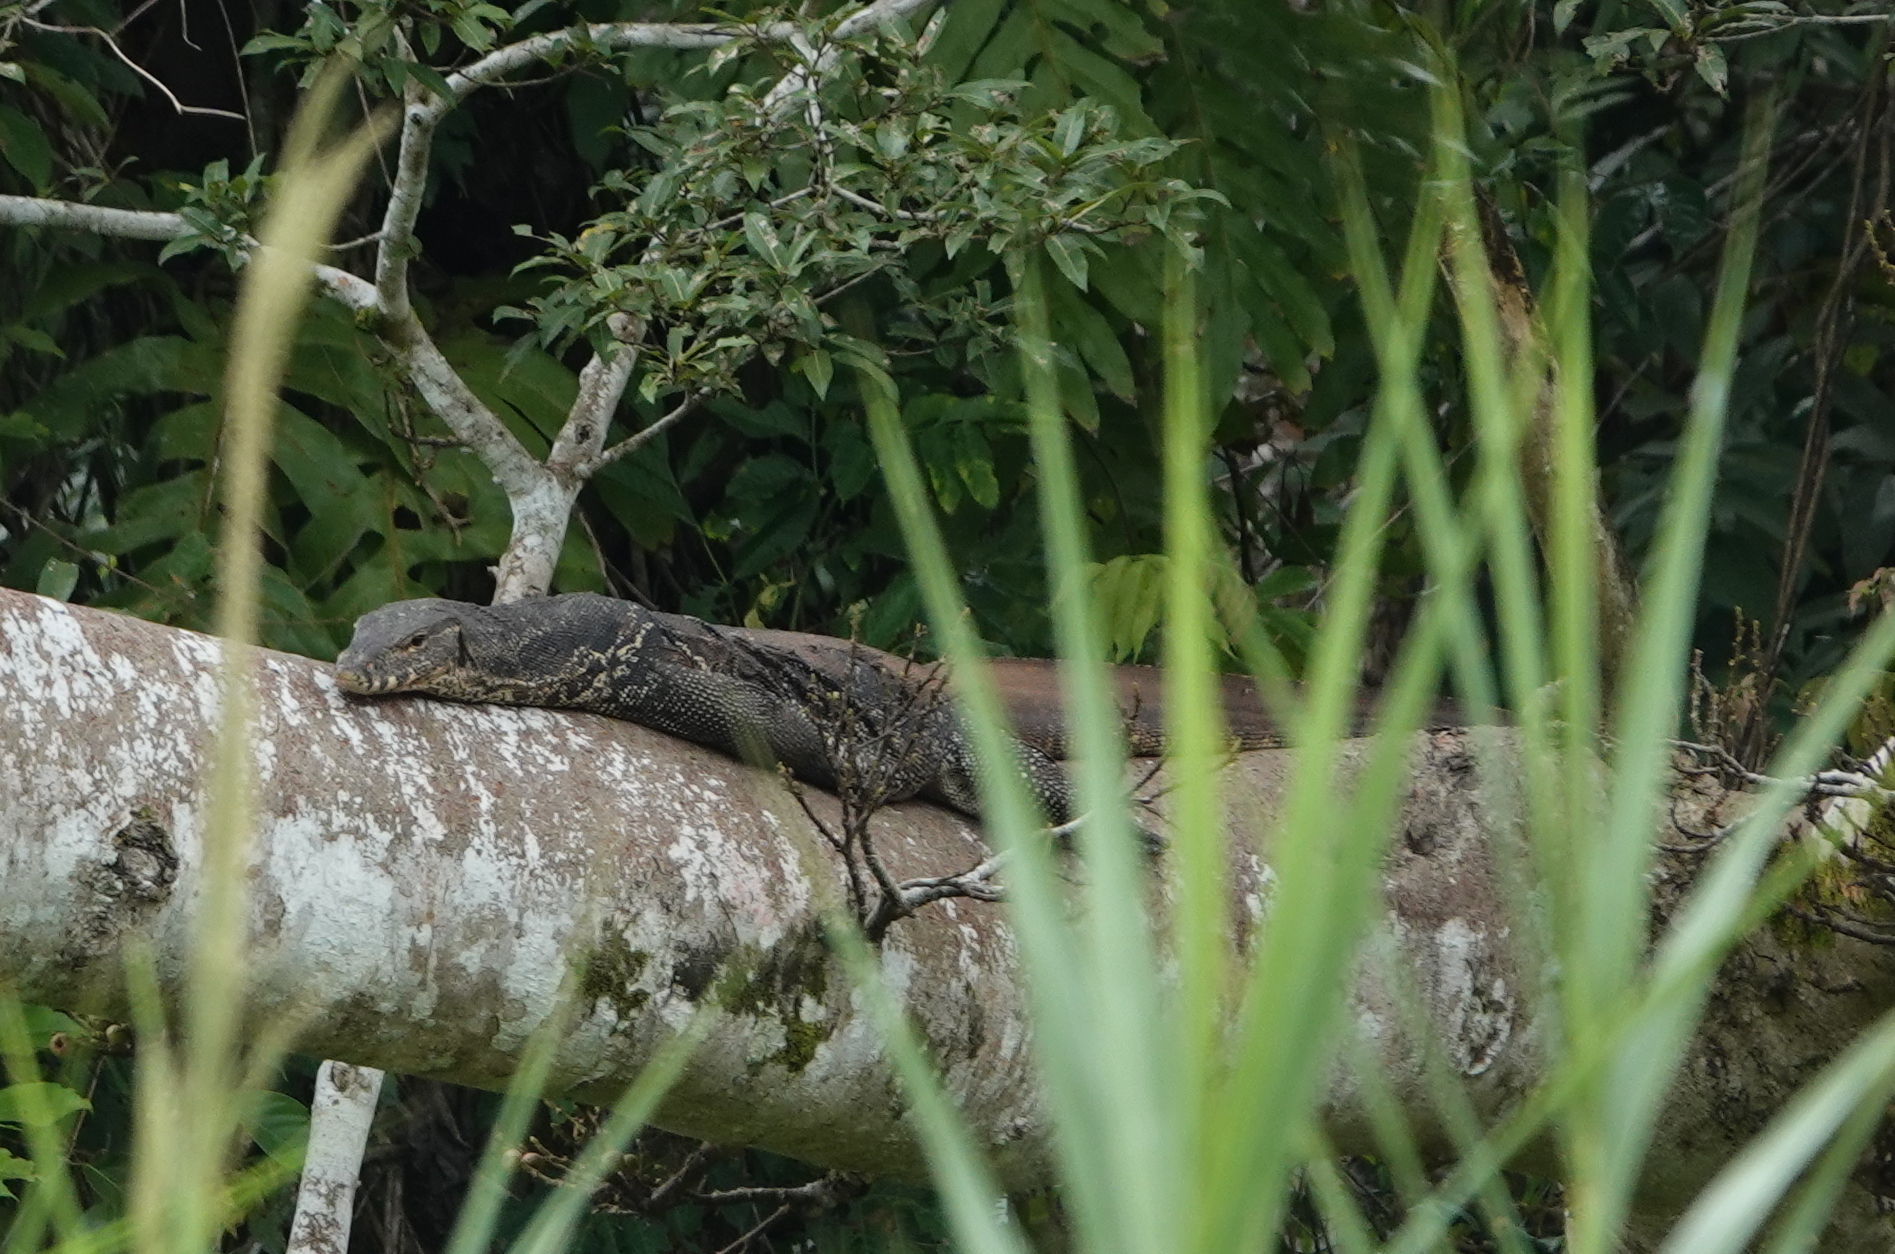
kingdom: Animalia
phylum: Chordata
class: Squamata
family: Varanidae
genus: Varanus
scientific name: Varanus salvator
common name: Common water monitor
